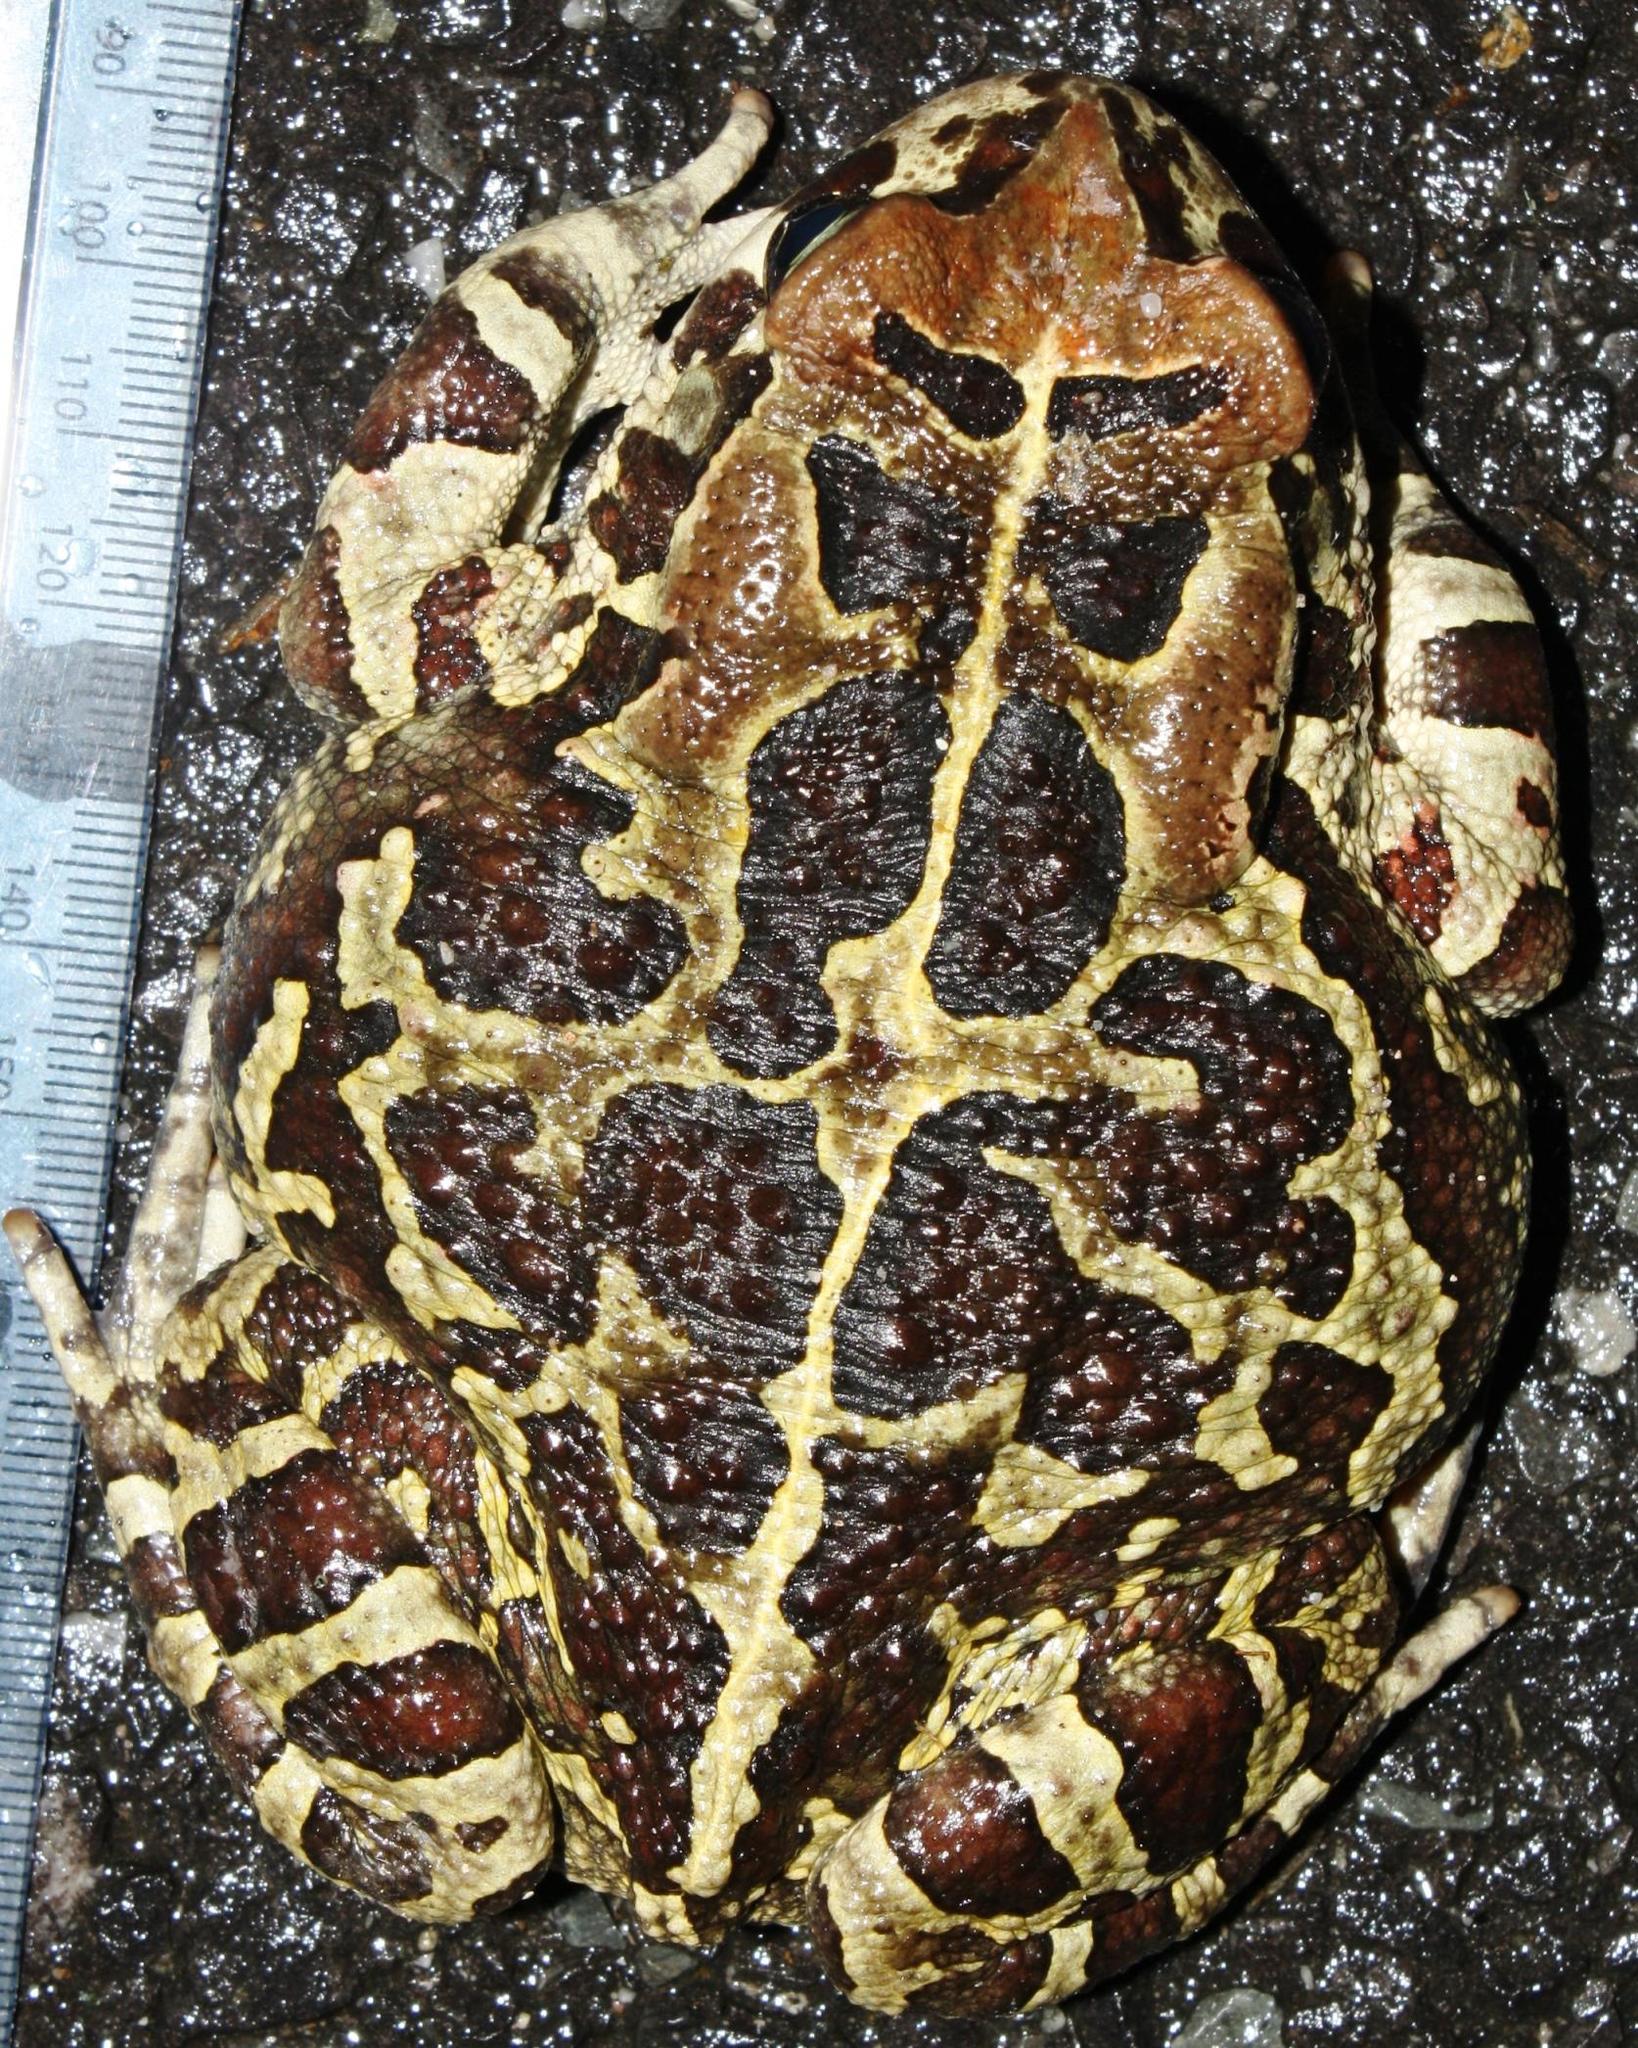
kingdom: Animalia
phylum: Chordata
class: Amphibia
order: Anura
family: Bufonidae
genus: Sclerophrys
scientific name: Sclerophrys pantherina
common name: Panther toad
